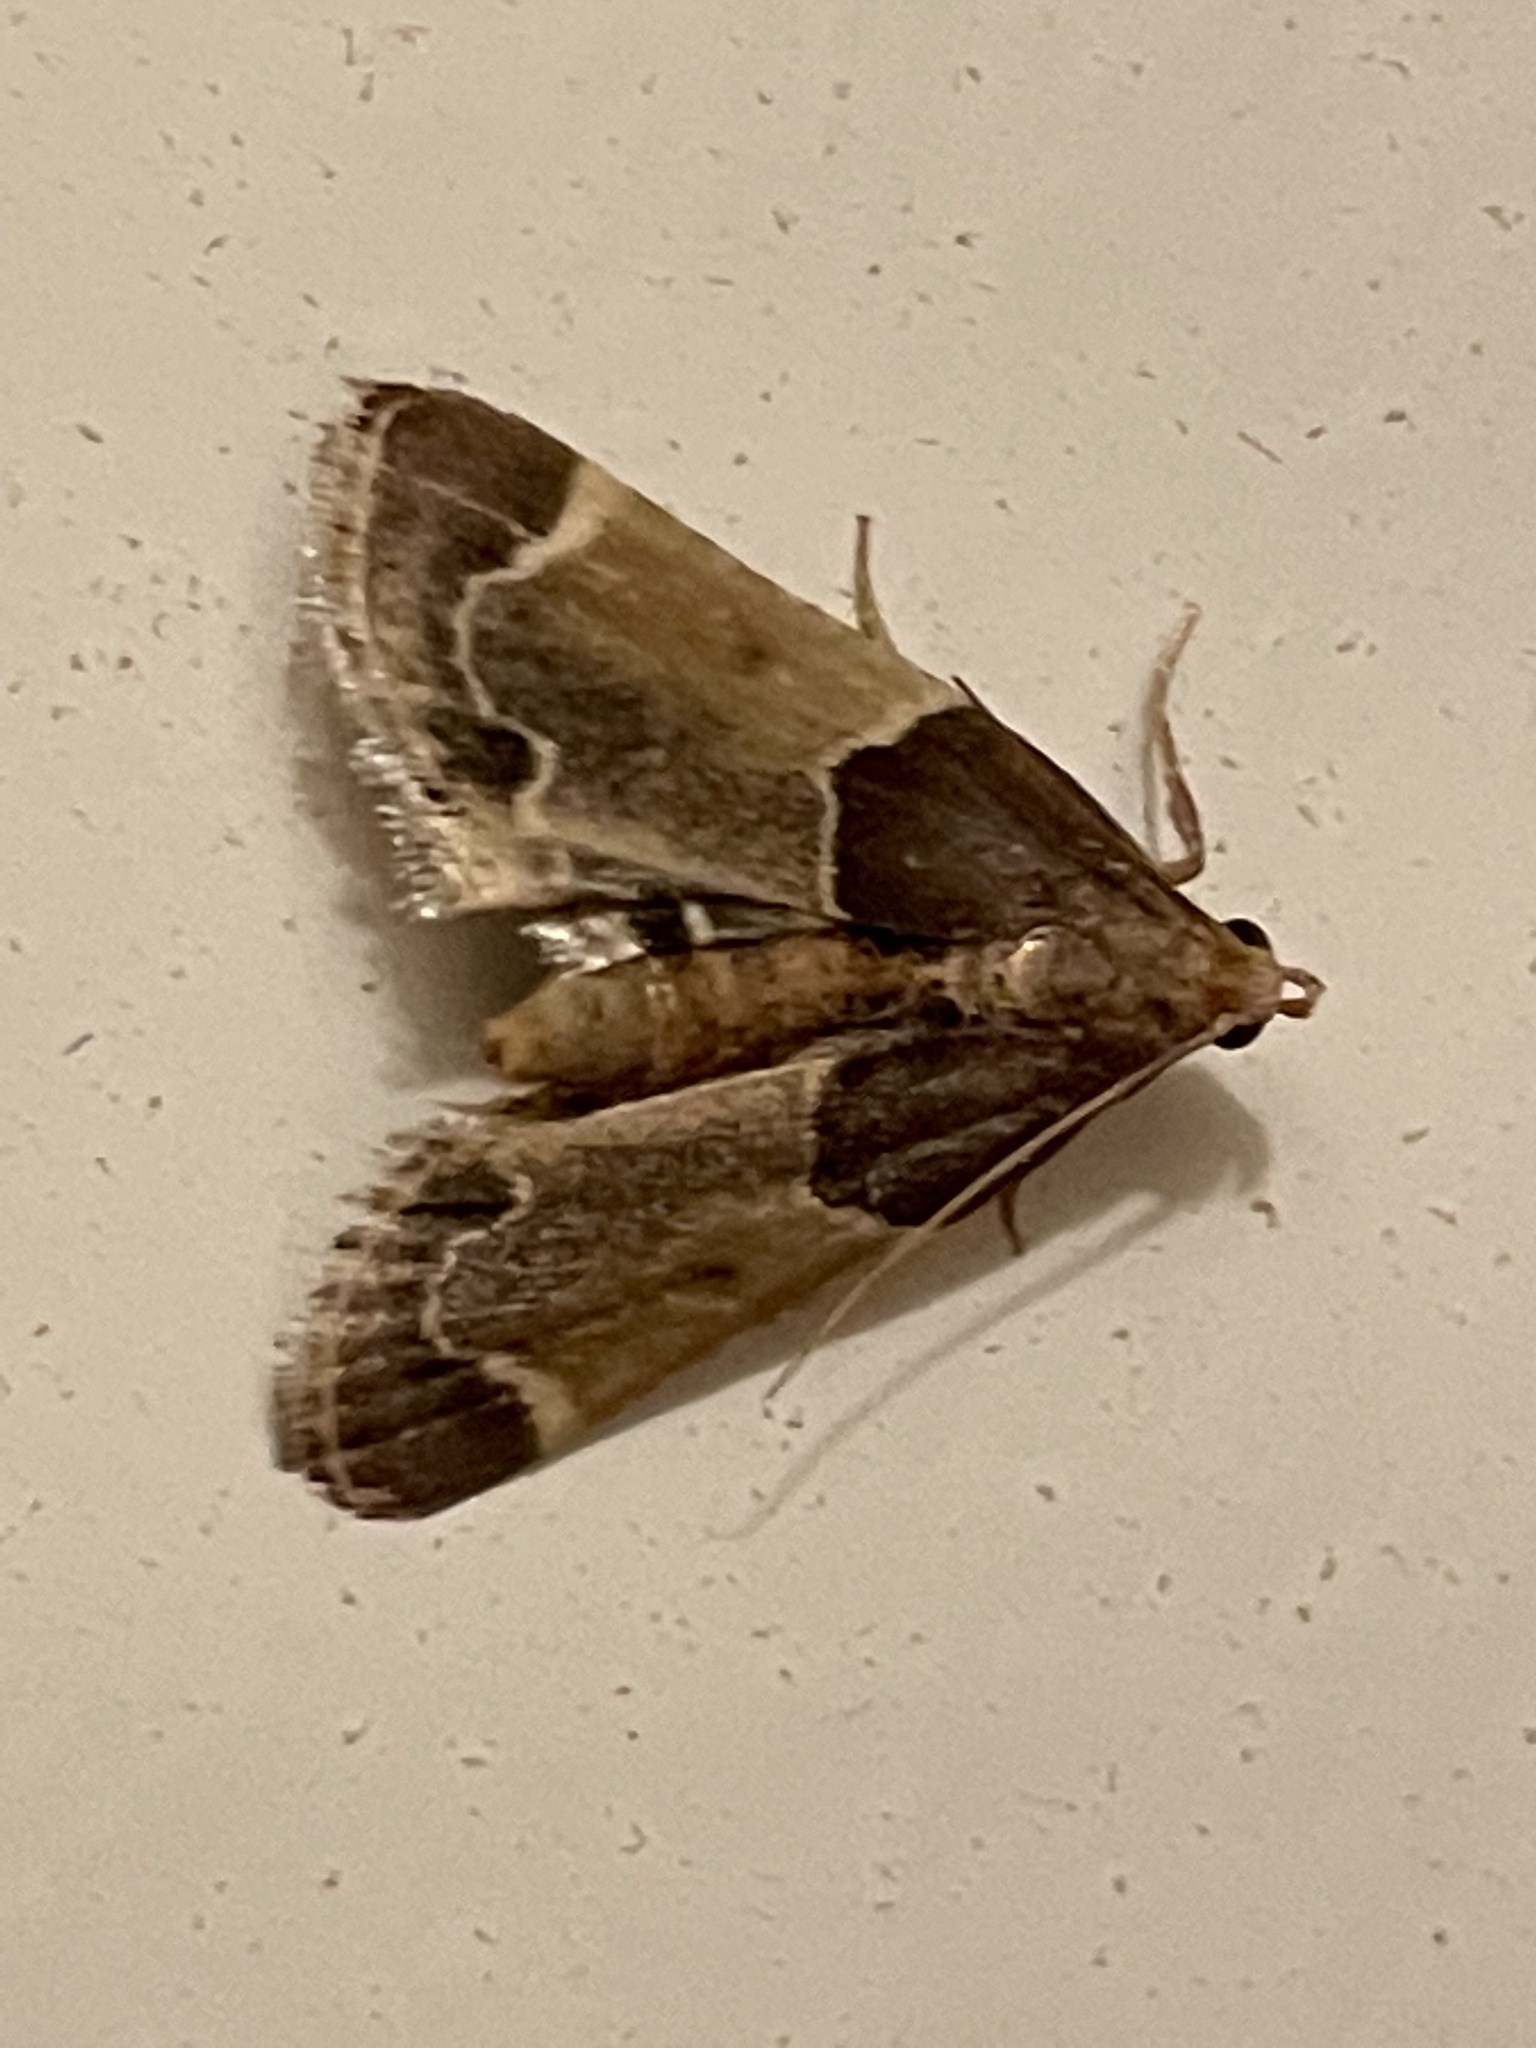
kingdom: Animalia
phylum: Arthropoda
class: Insecta
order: Lepidoptera
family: Pyralidae
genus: Pyralis
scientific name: Pyralis farinalis
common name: Meal moth
